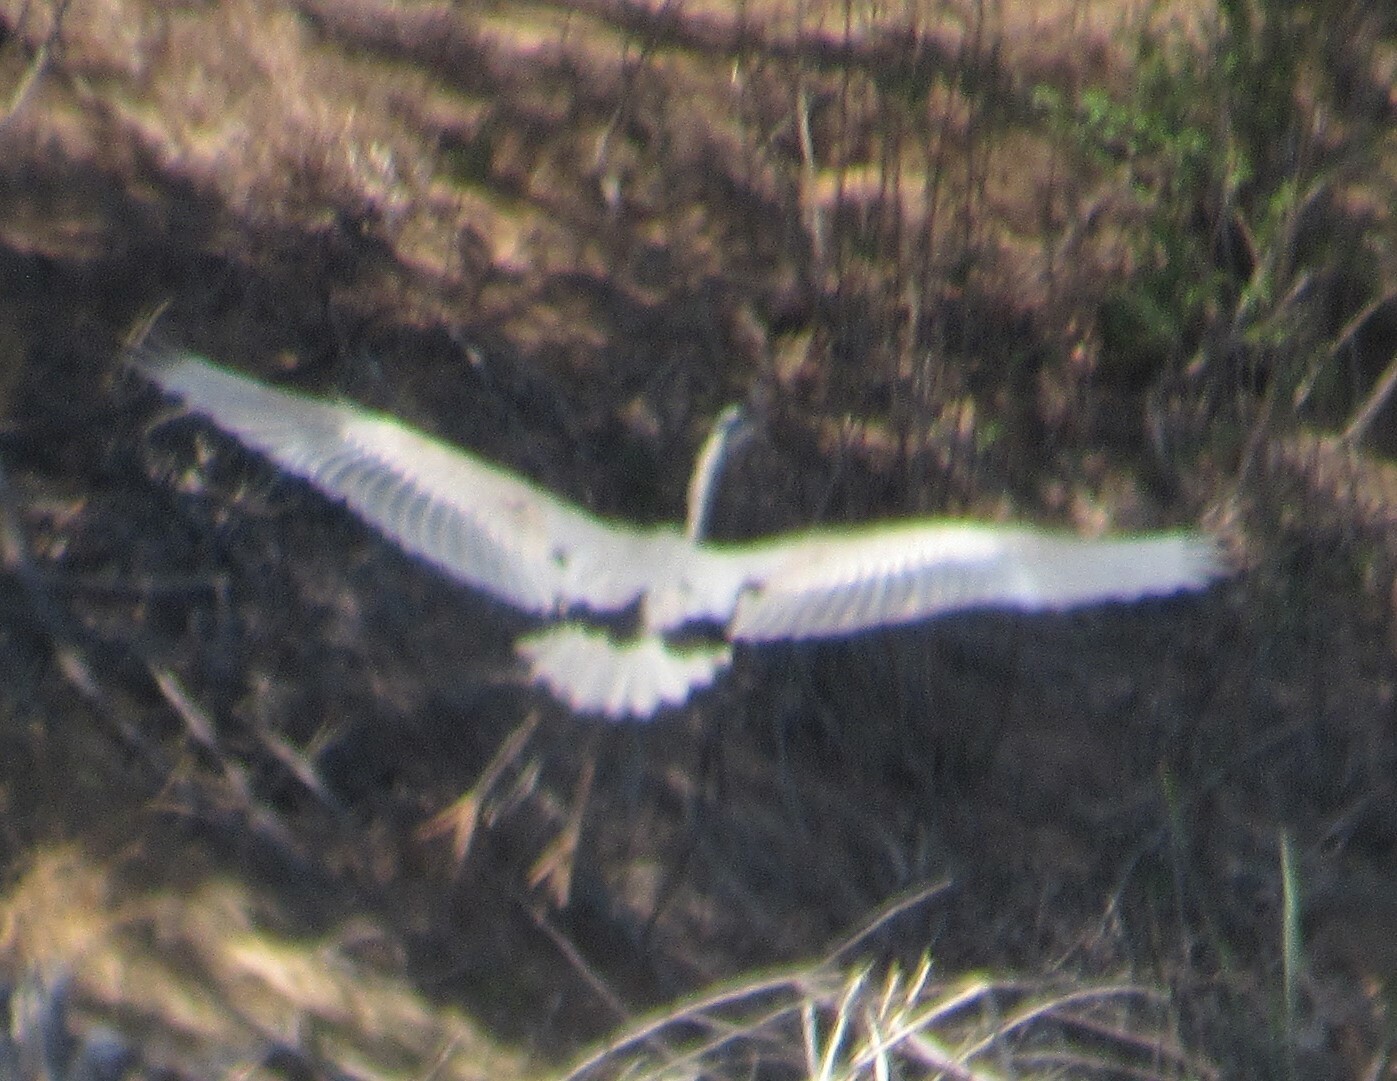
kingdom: Animalia
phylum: Chordata
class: Aves
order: Pelecaniformes
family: Ardeidae
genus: Ardea
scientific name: Ardea herodias
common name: Great blue heron
